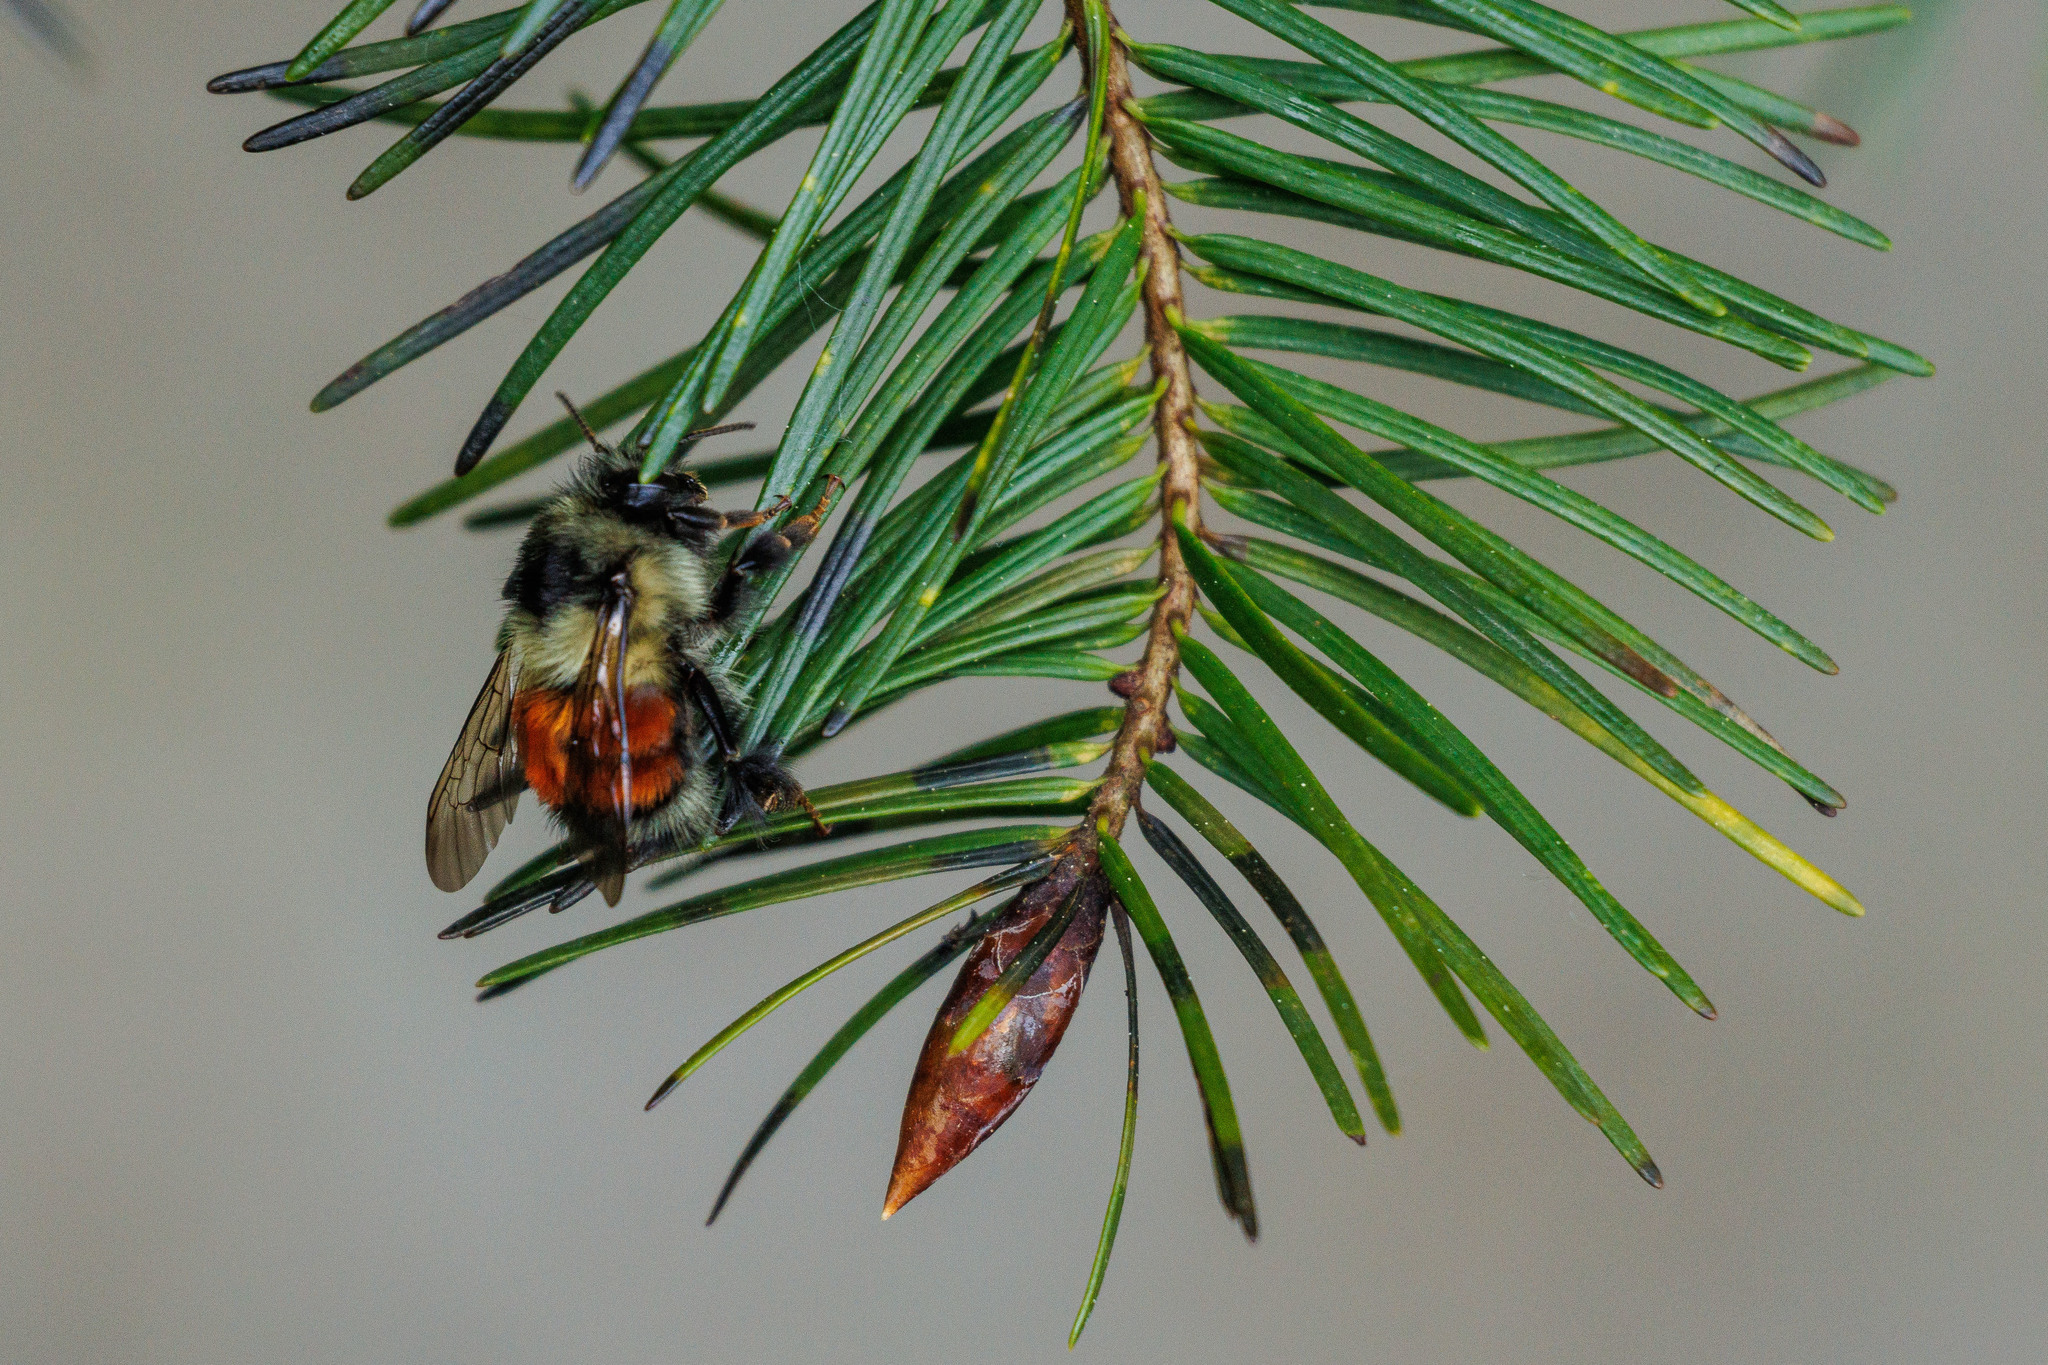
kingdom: Animalia
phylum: Arthropoda
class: Insecta
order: Hymenoptera
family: Apidae
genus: Bombus
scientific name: Bombus melanopygus
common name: Black tail bumble bee
